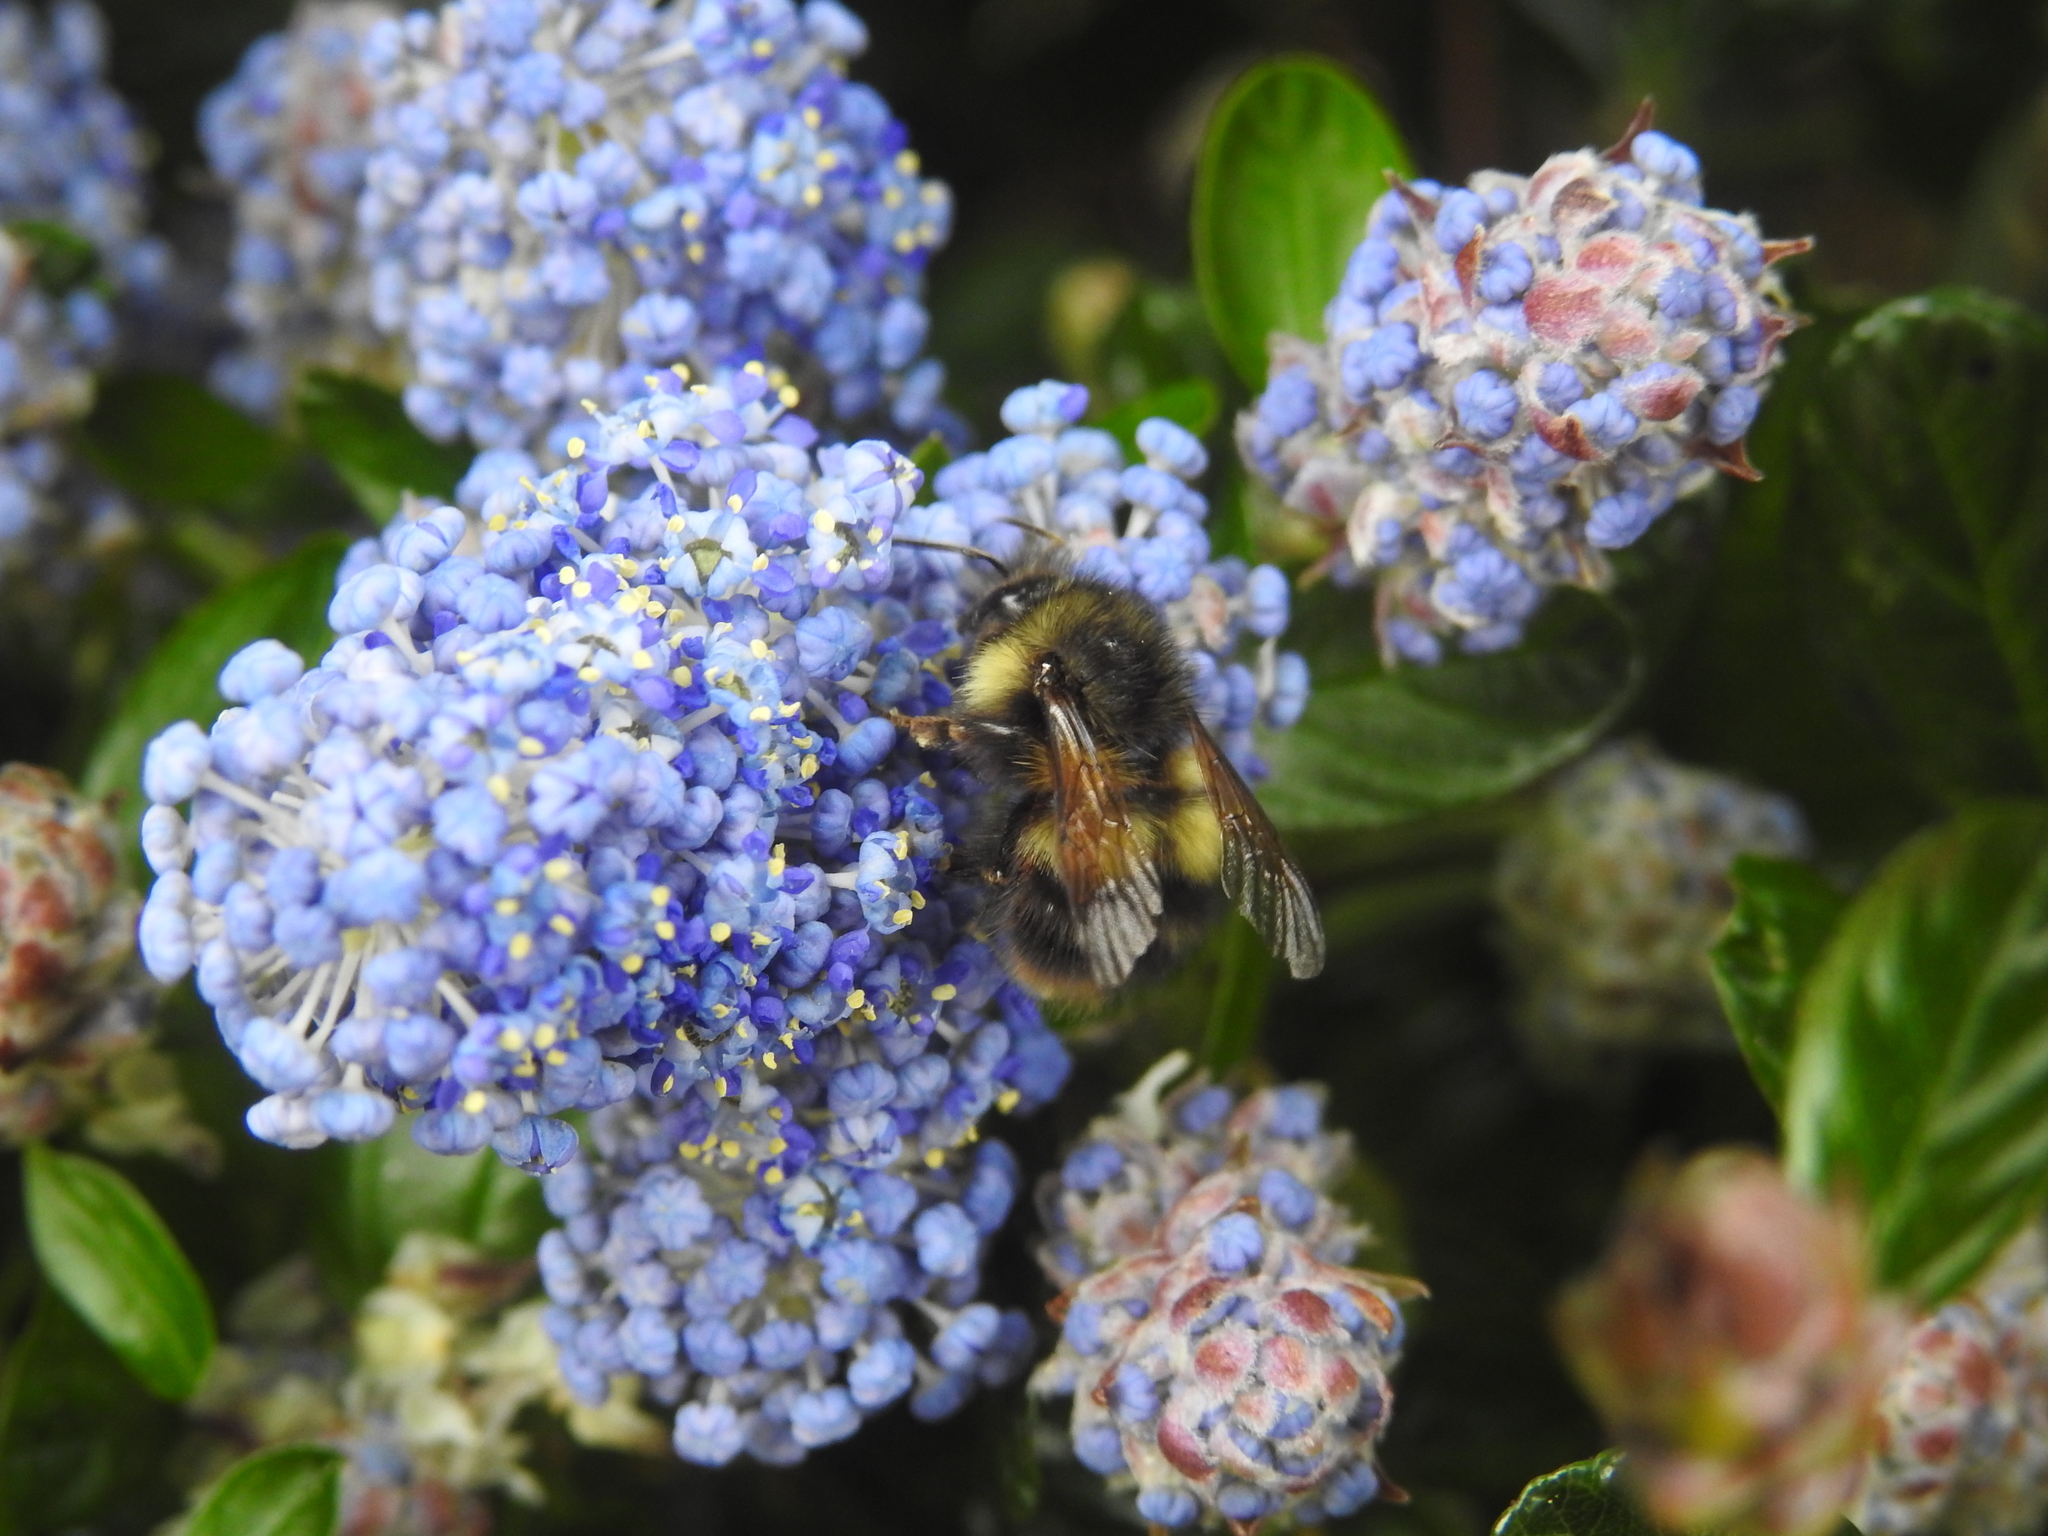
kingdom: Animalia
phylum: Arthropoda
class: Insecta
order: Hymenoptera
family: Apidae
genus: Bombus
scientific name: Bombus flavifrons
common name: Yellow head bumble bee
